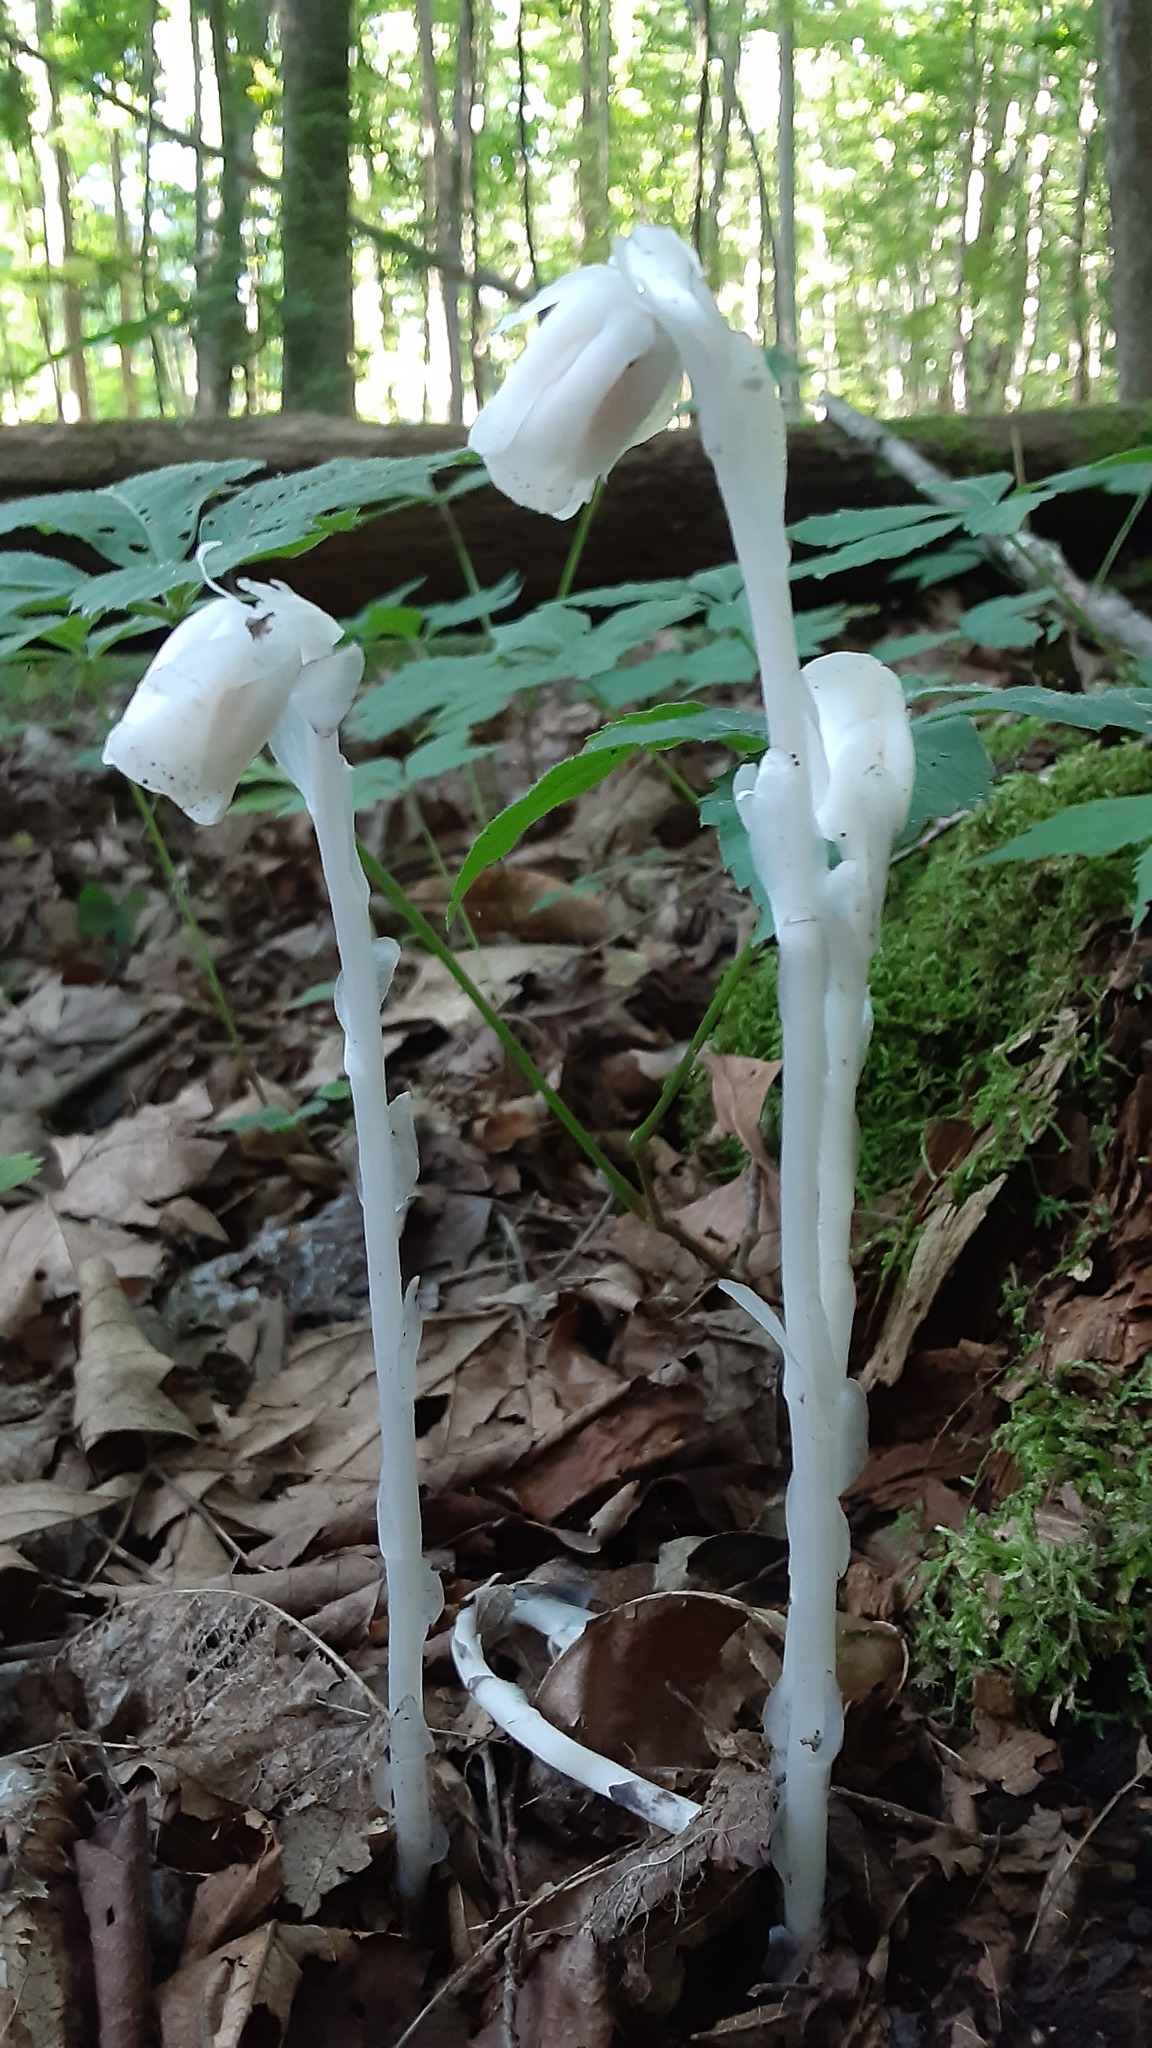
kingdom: Plantae
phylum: Tracheophyta
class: Magnoliopsida
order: Ericales
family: Ericaceae
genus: Monotropa
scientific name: Monotropa uniflora
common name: Convulsion root
